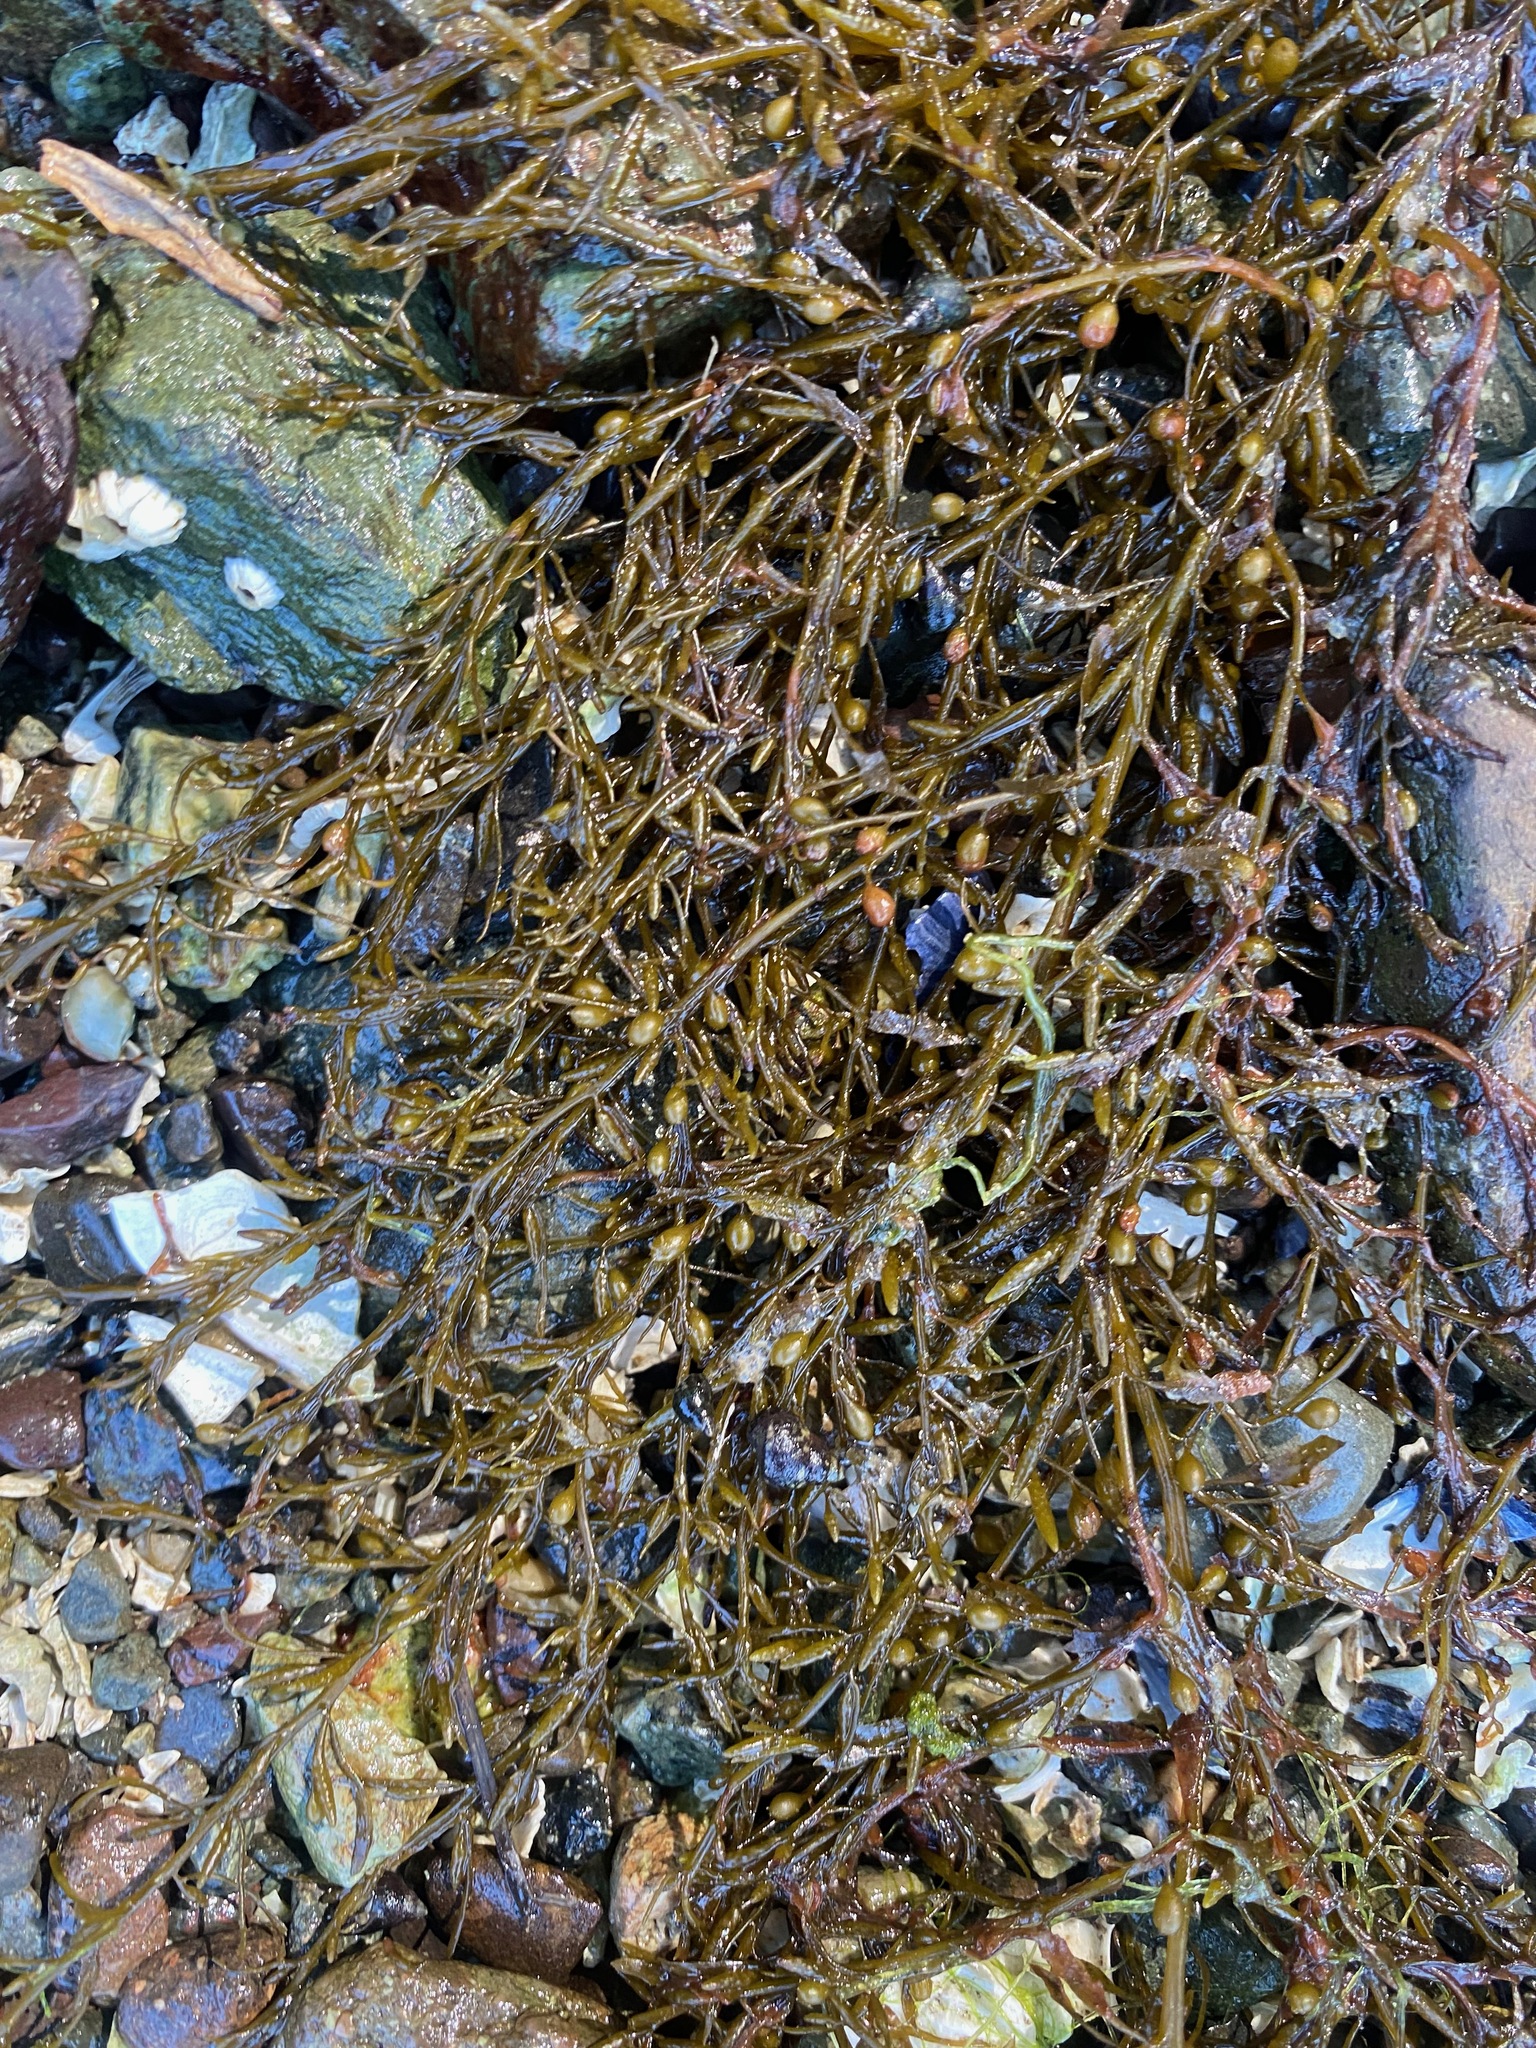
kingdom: Chromista
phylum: Ochrophyta
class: Phaeophyceae
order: Fucales
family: Sargassaceae
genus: Sargassum
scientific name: Sargassum muticum
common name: Japweed
